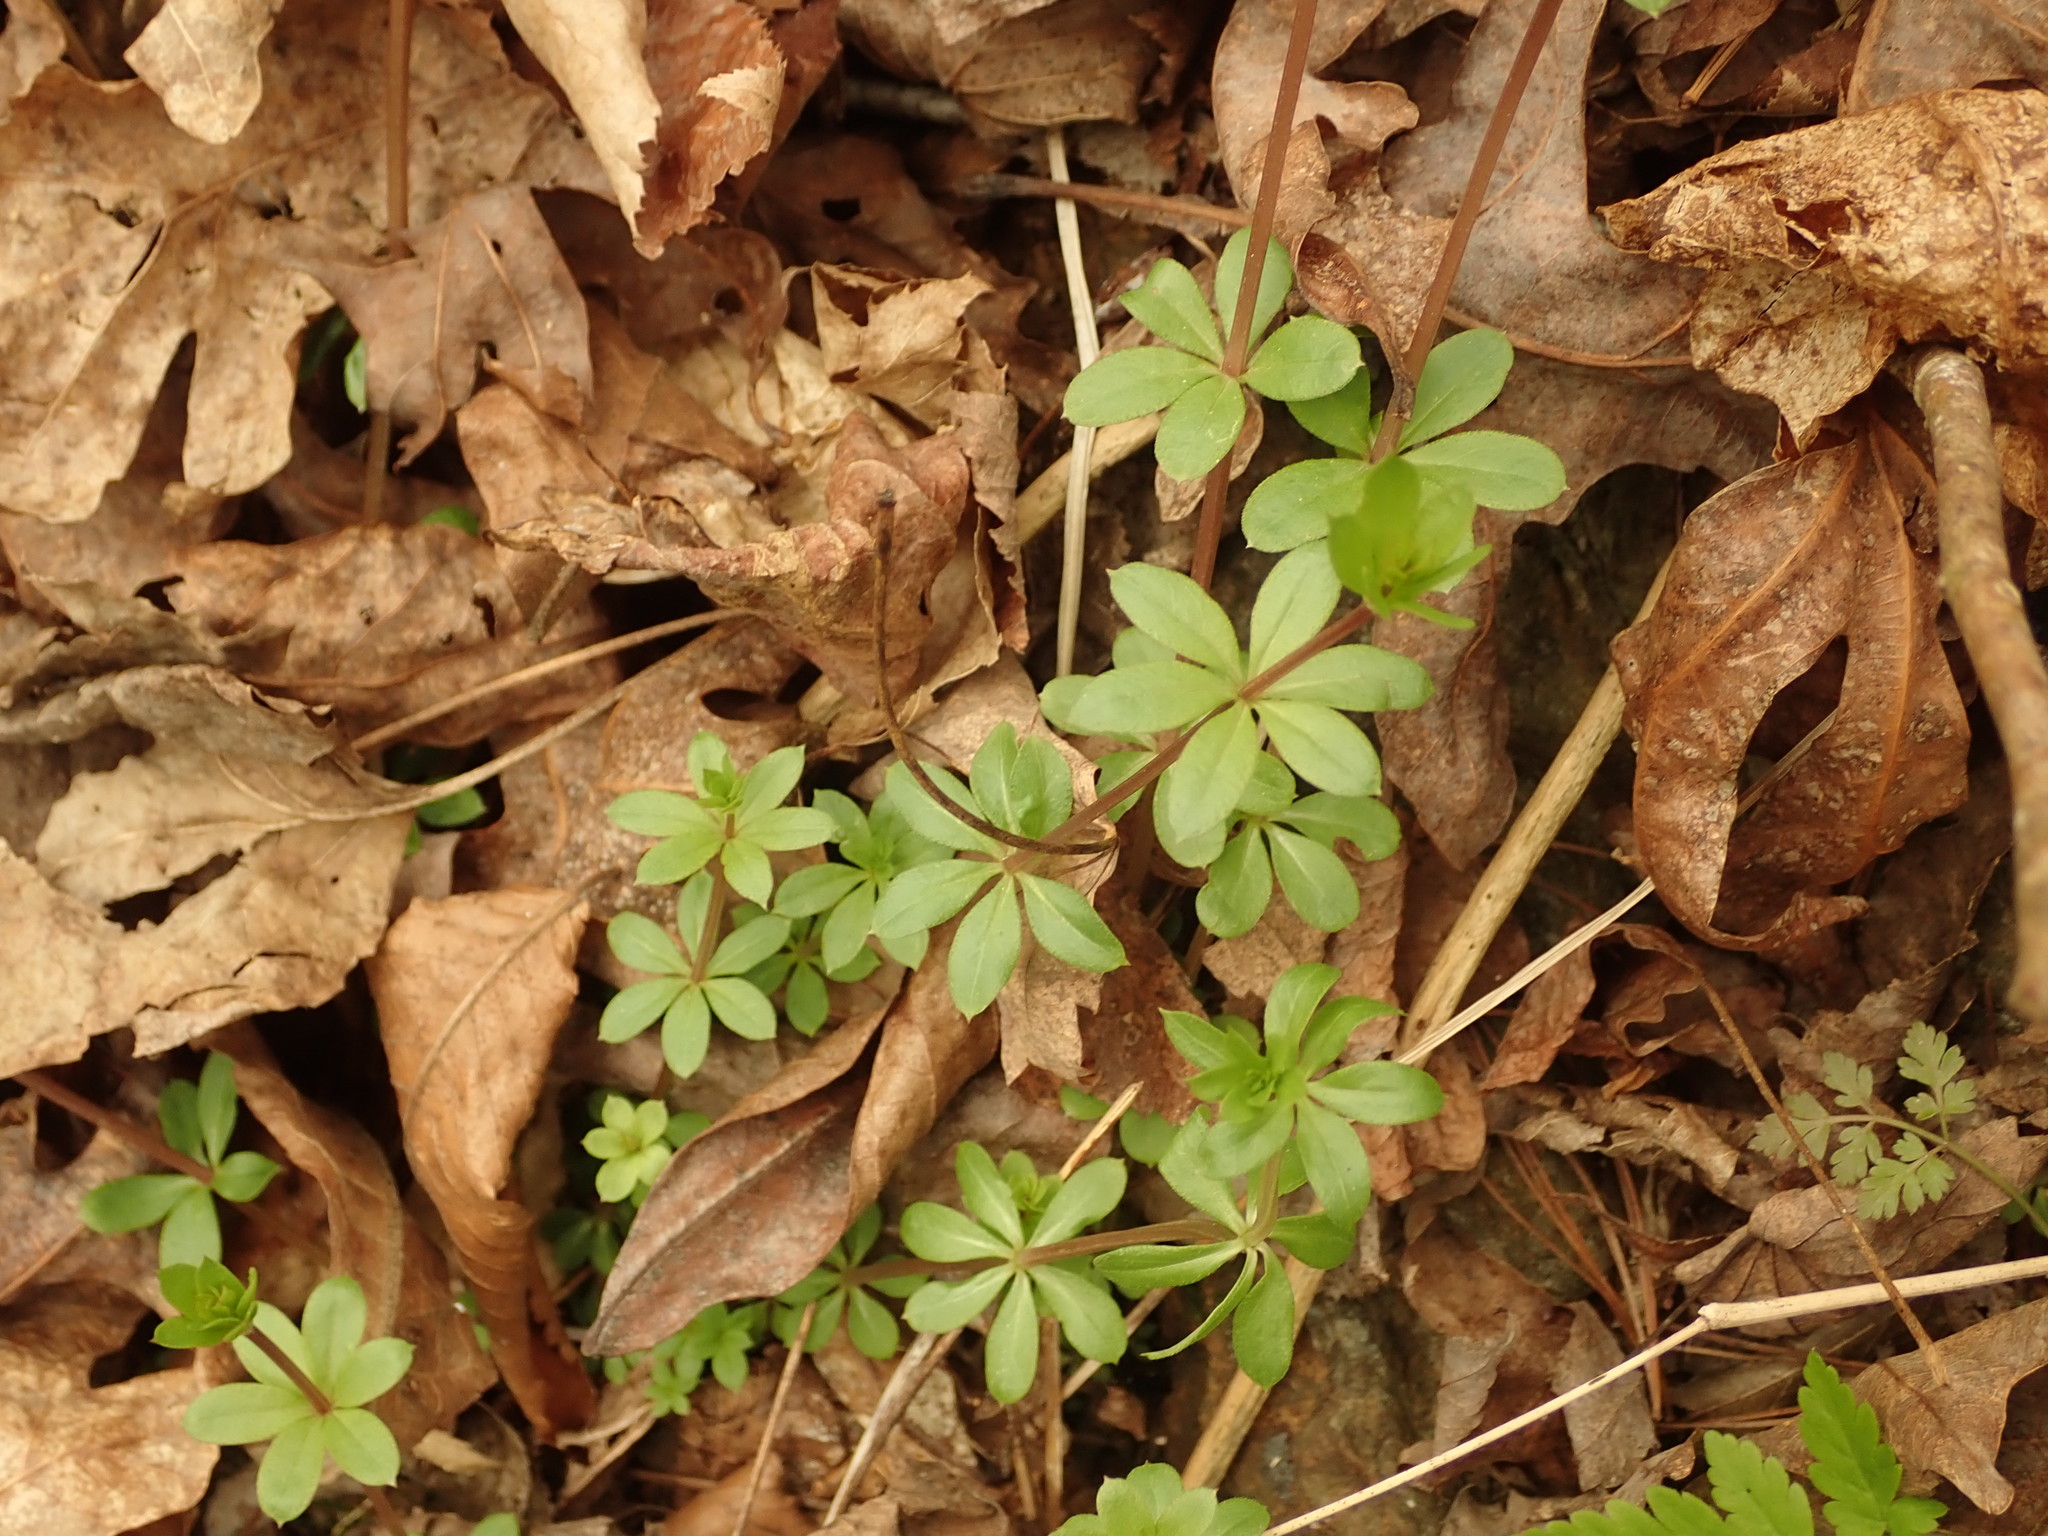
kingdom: Plantae
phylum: Tracheophyta
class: Magnoliopsida
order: Gentianales
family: Rubiaceae
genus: Galium
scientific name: Galium triflorum
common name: Fragrant bedstraw
